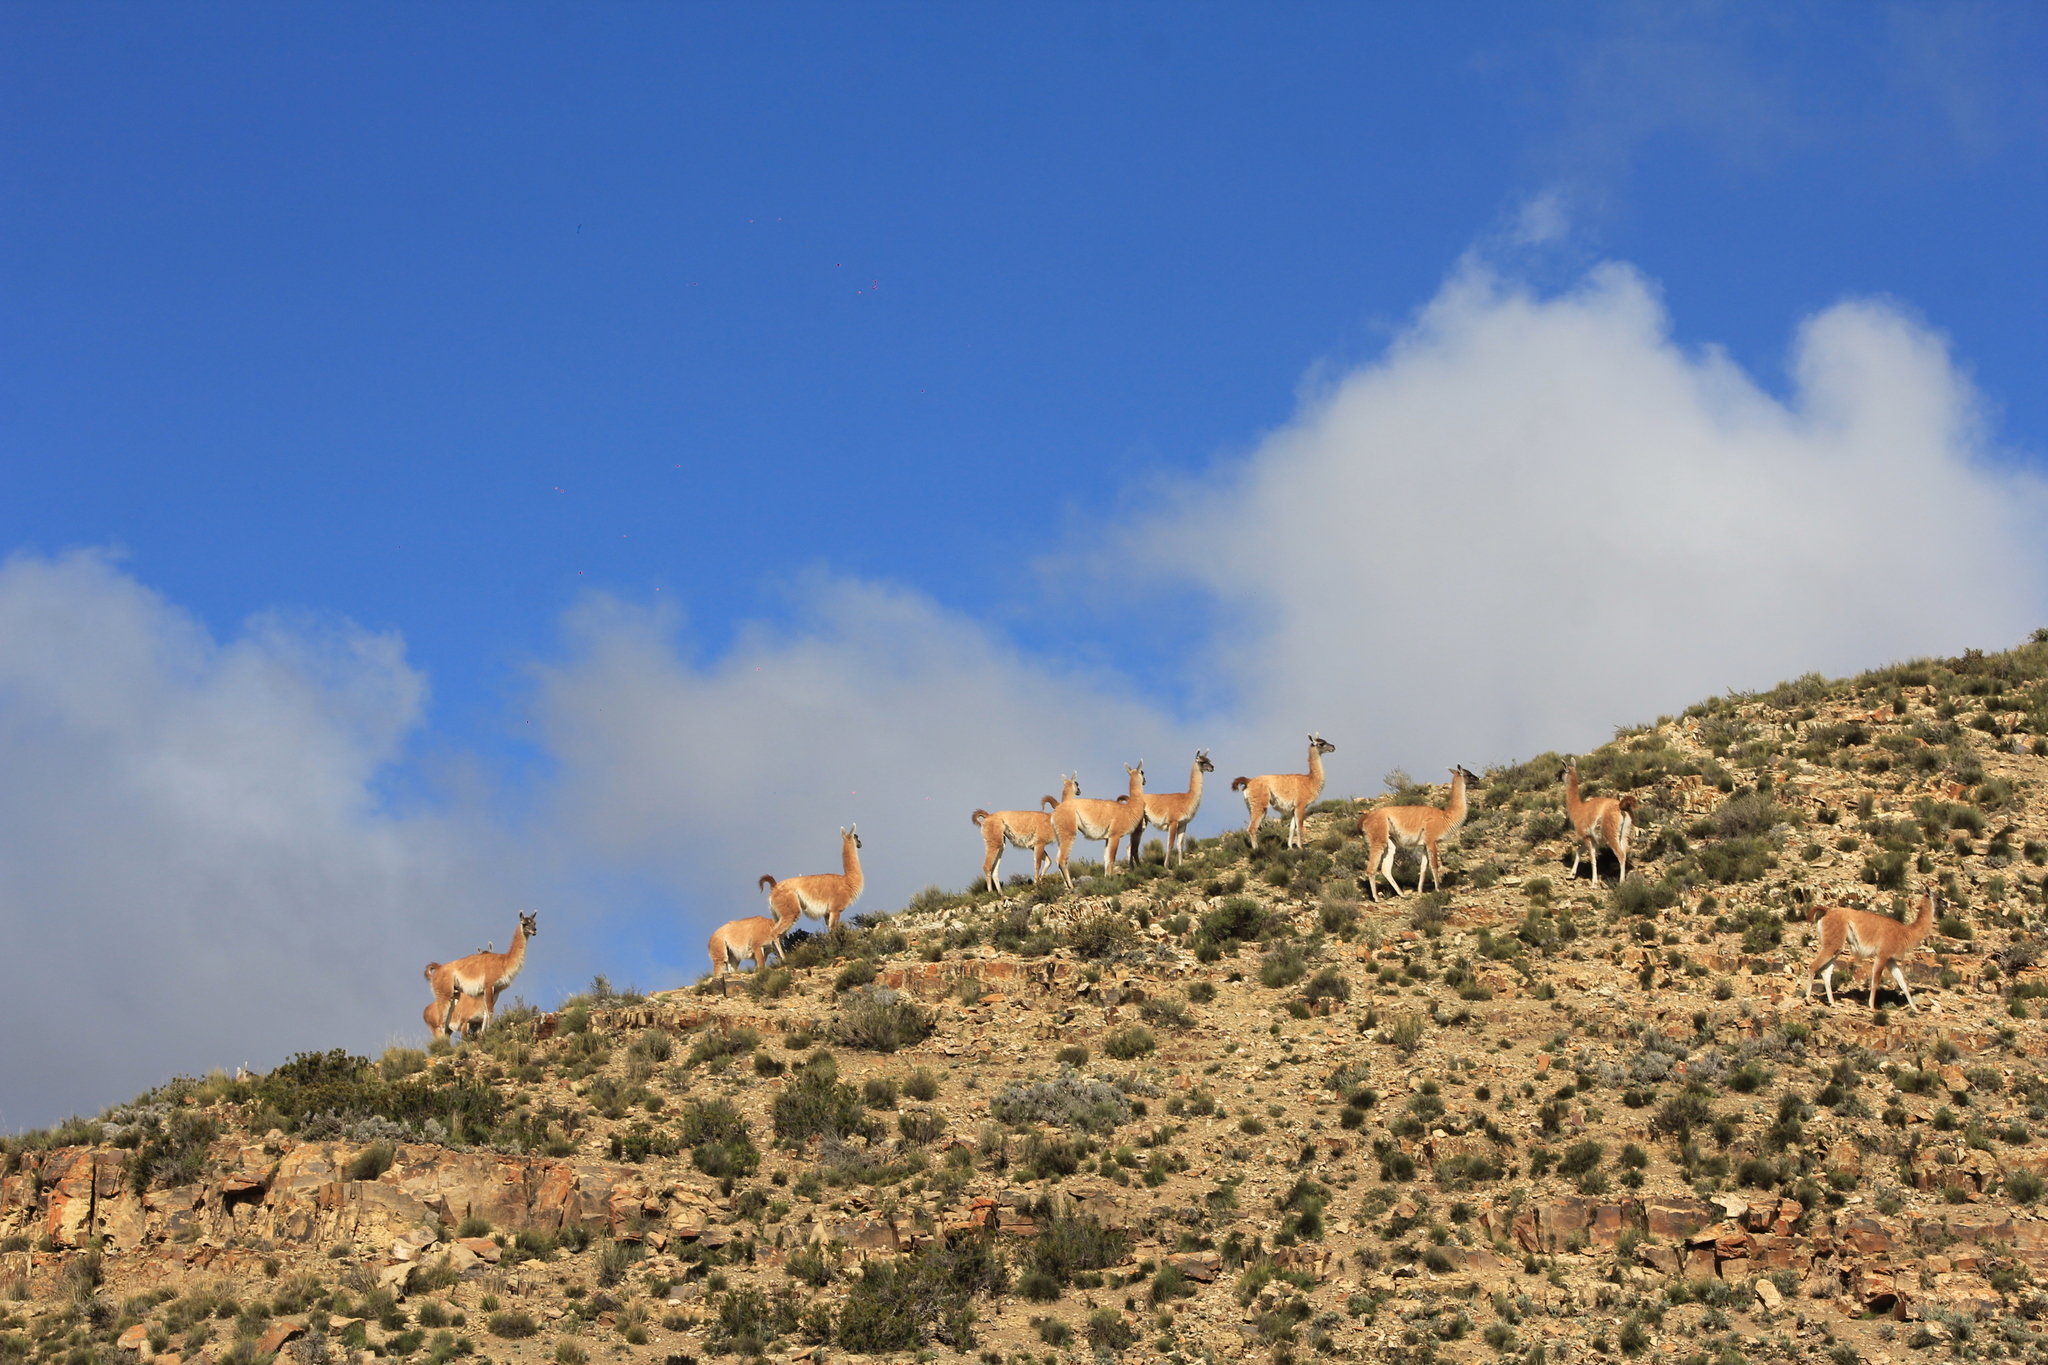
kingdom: Animalia
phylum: Chordata
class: Mammalia
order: Artiodactyla
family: Camelidae
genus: Lama
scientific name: Lama glama
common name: Llama
